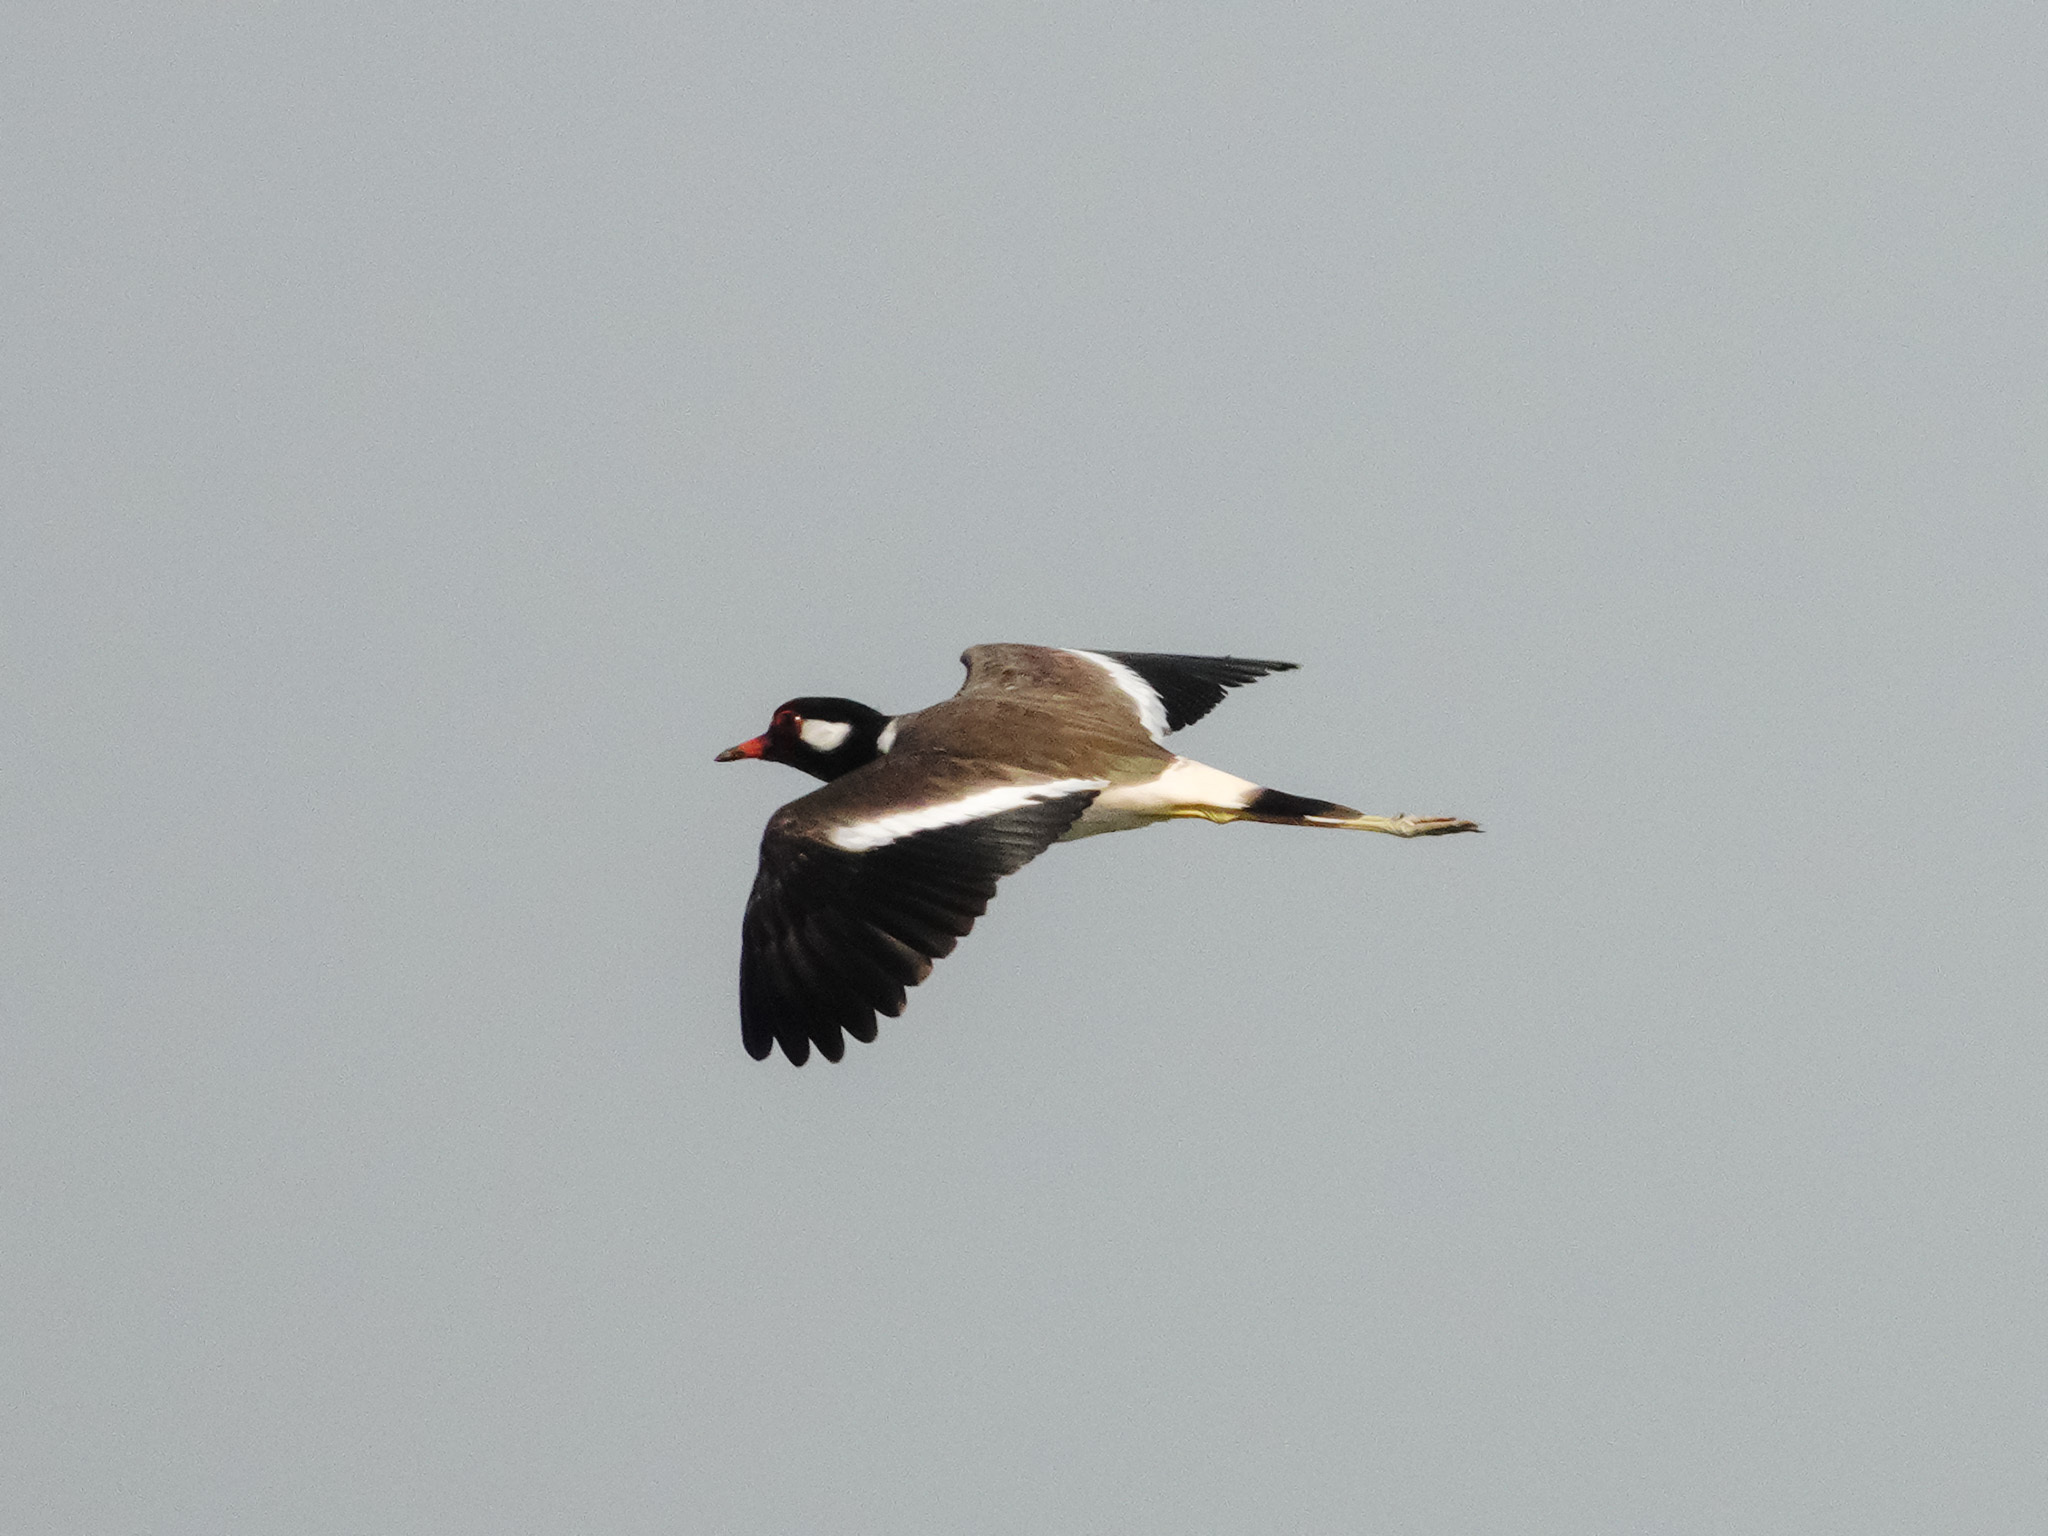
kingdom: Animalia
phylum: Chordata
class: Aves
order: Charadriiformes
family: Charadriidae
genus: Vanellus
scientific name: Vanellus indicus
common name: Red-wattled lapwing
